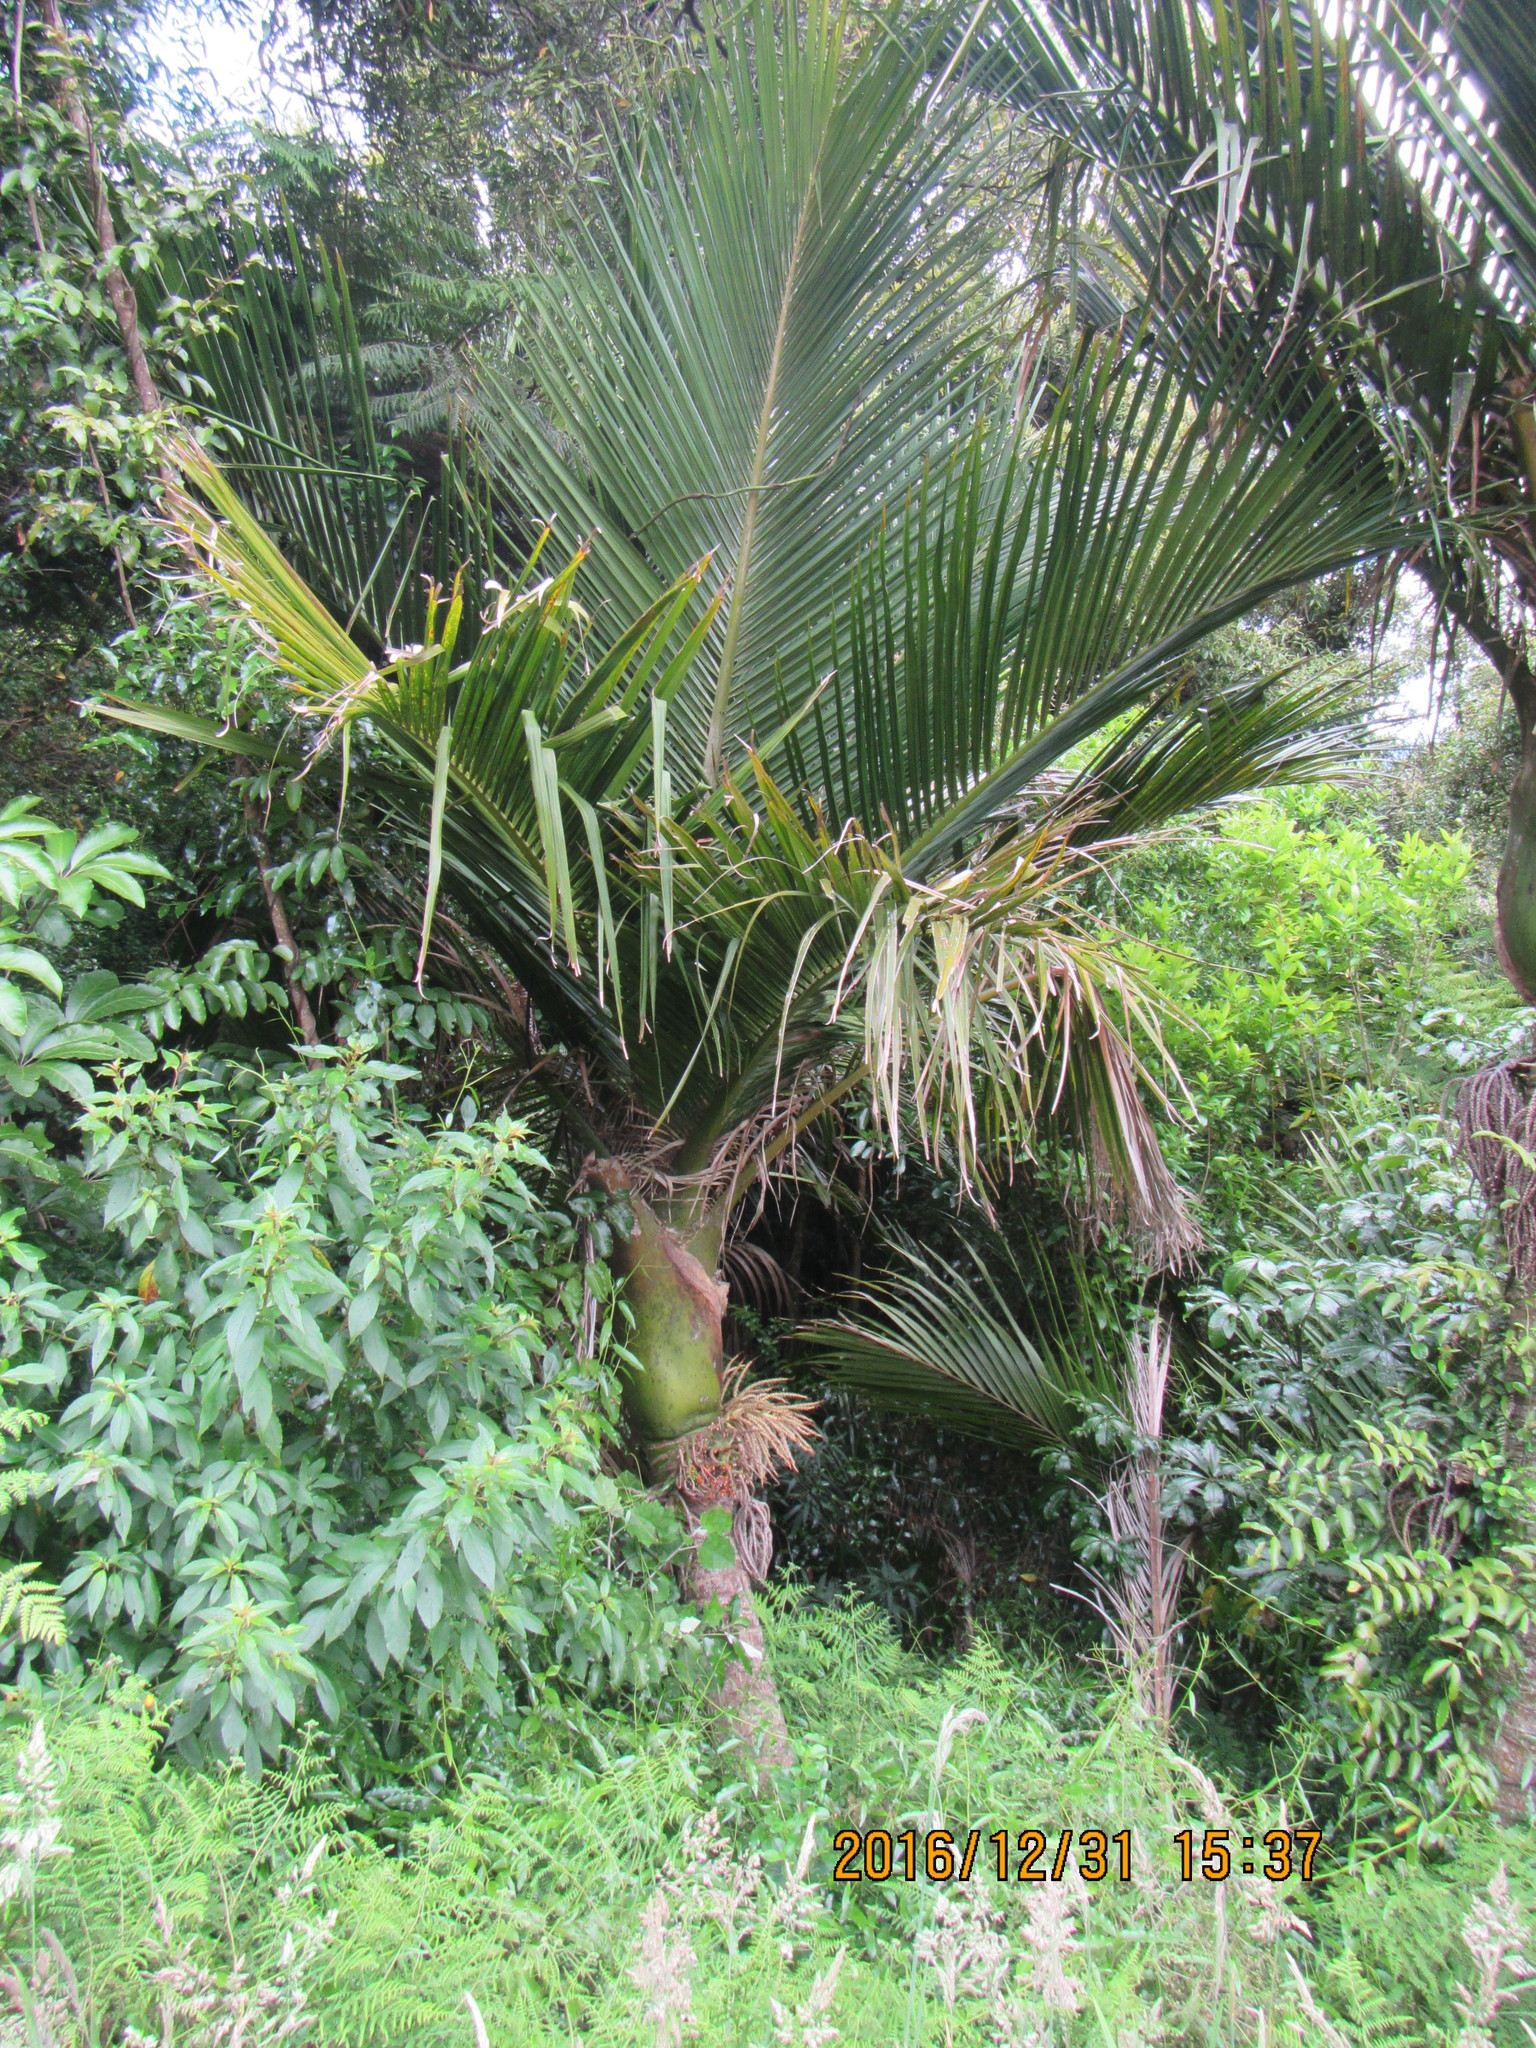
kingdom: Plantae
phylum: Tracheophyta
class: Liliopsida
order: Arecales
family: Arecaceae
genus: Rhopalostylis
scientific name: Rhopalostylis sapida
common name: Feather-duster palm
